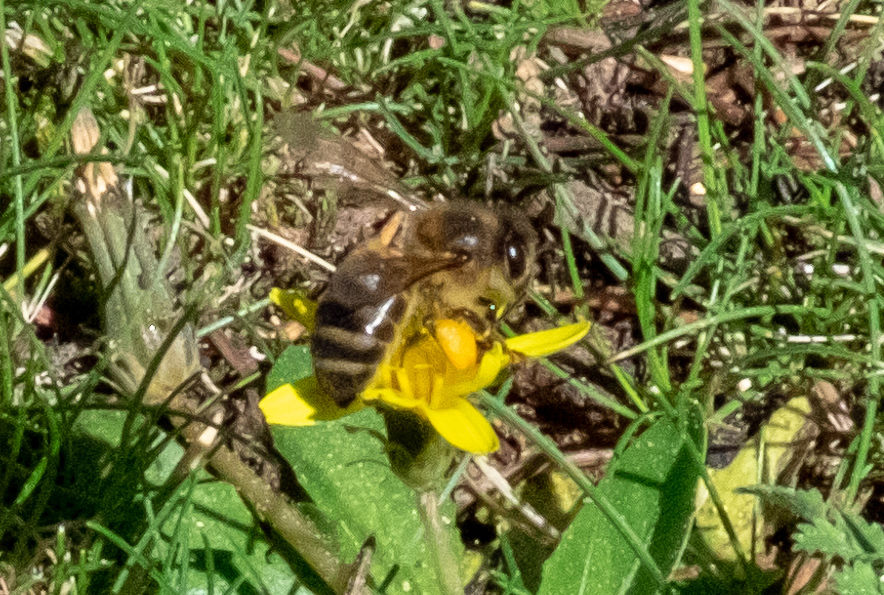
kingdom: Animalia
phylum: Arthropoda
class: Insecta
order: Hymenoptera
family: Apidae
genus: Apis
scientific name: Apis mellifera
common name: Honey bee
